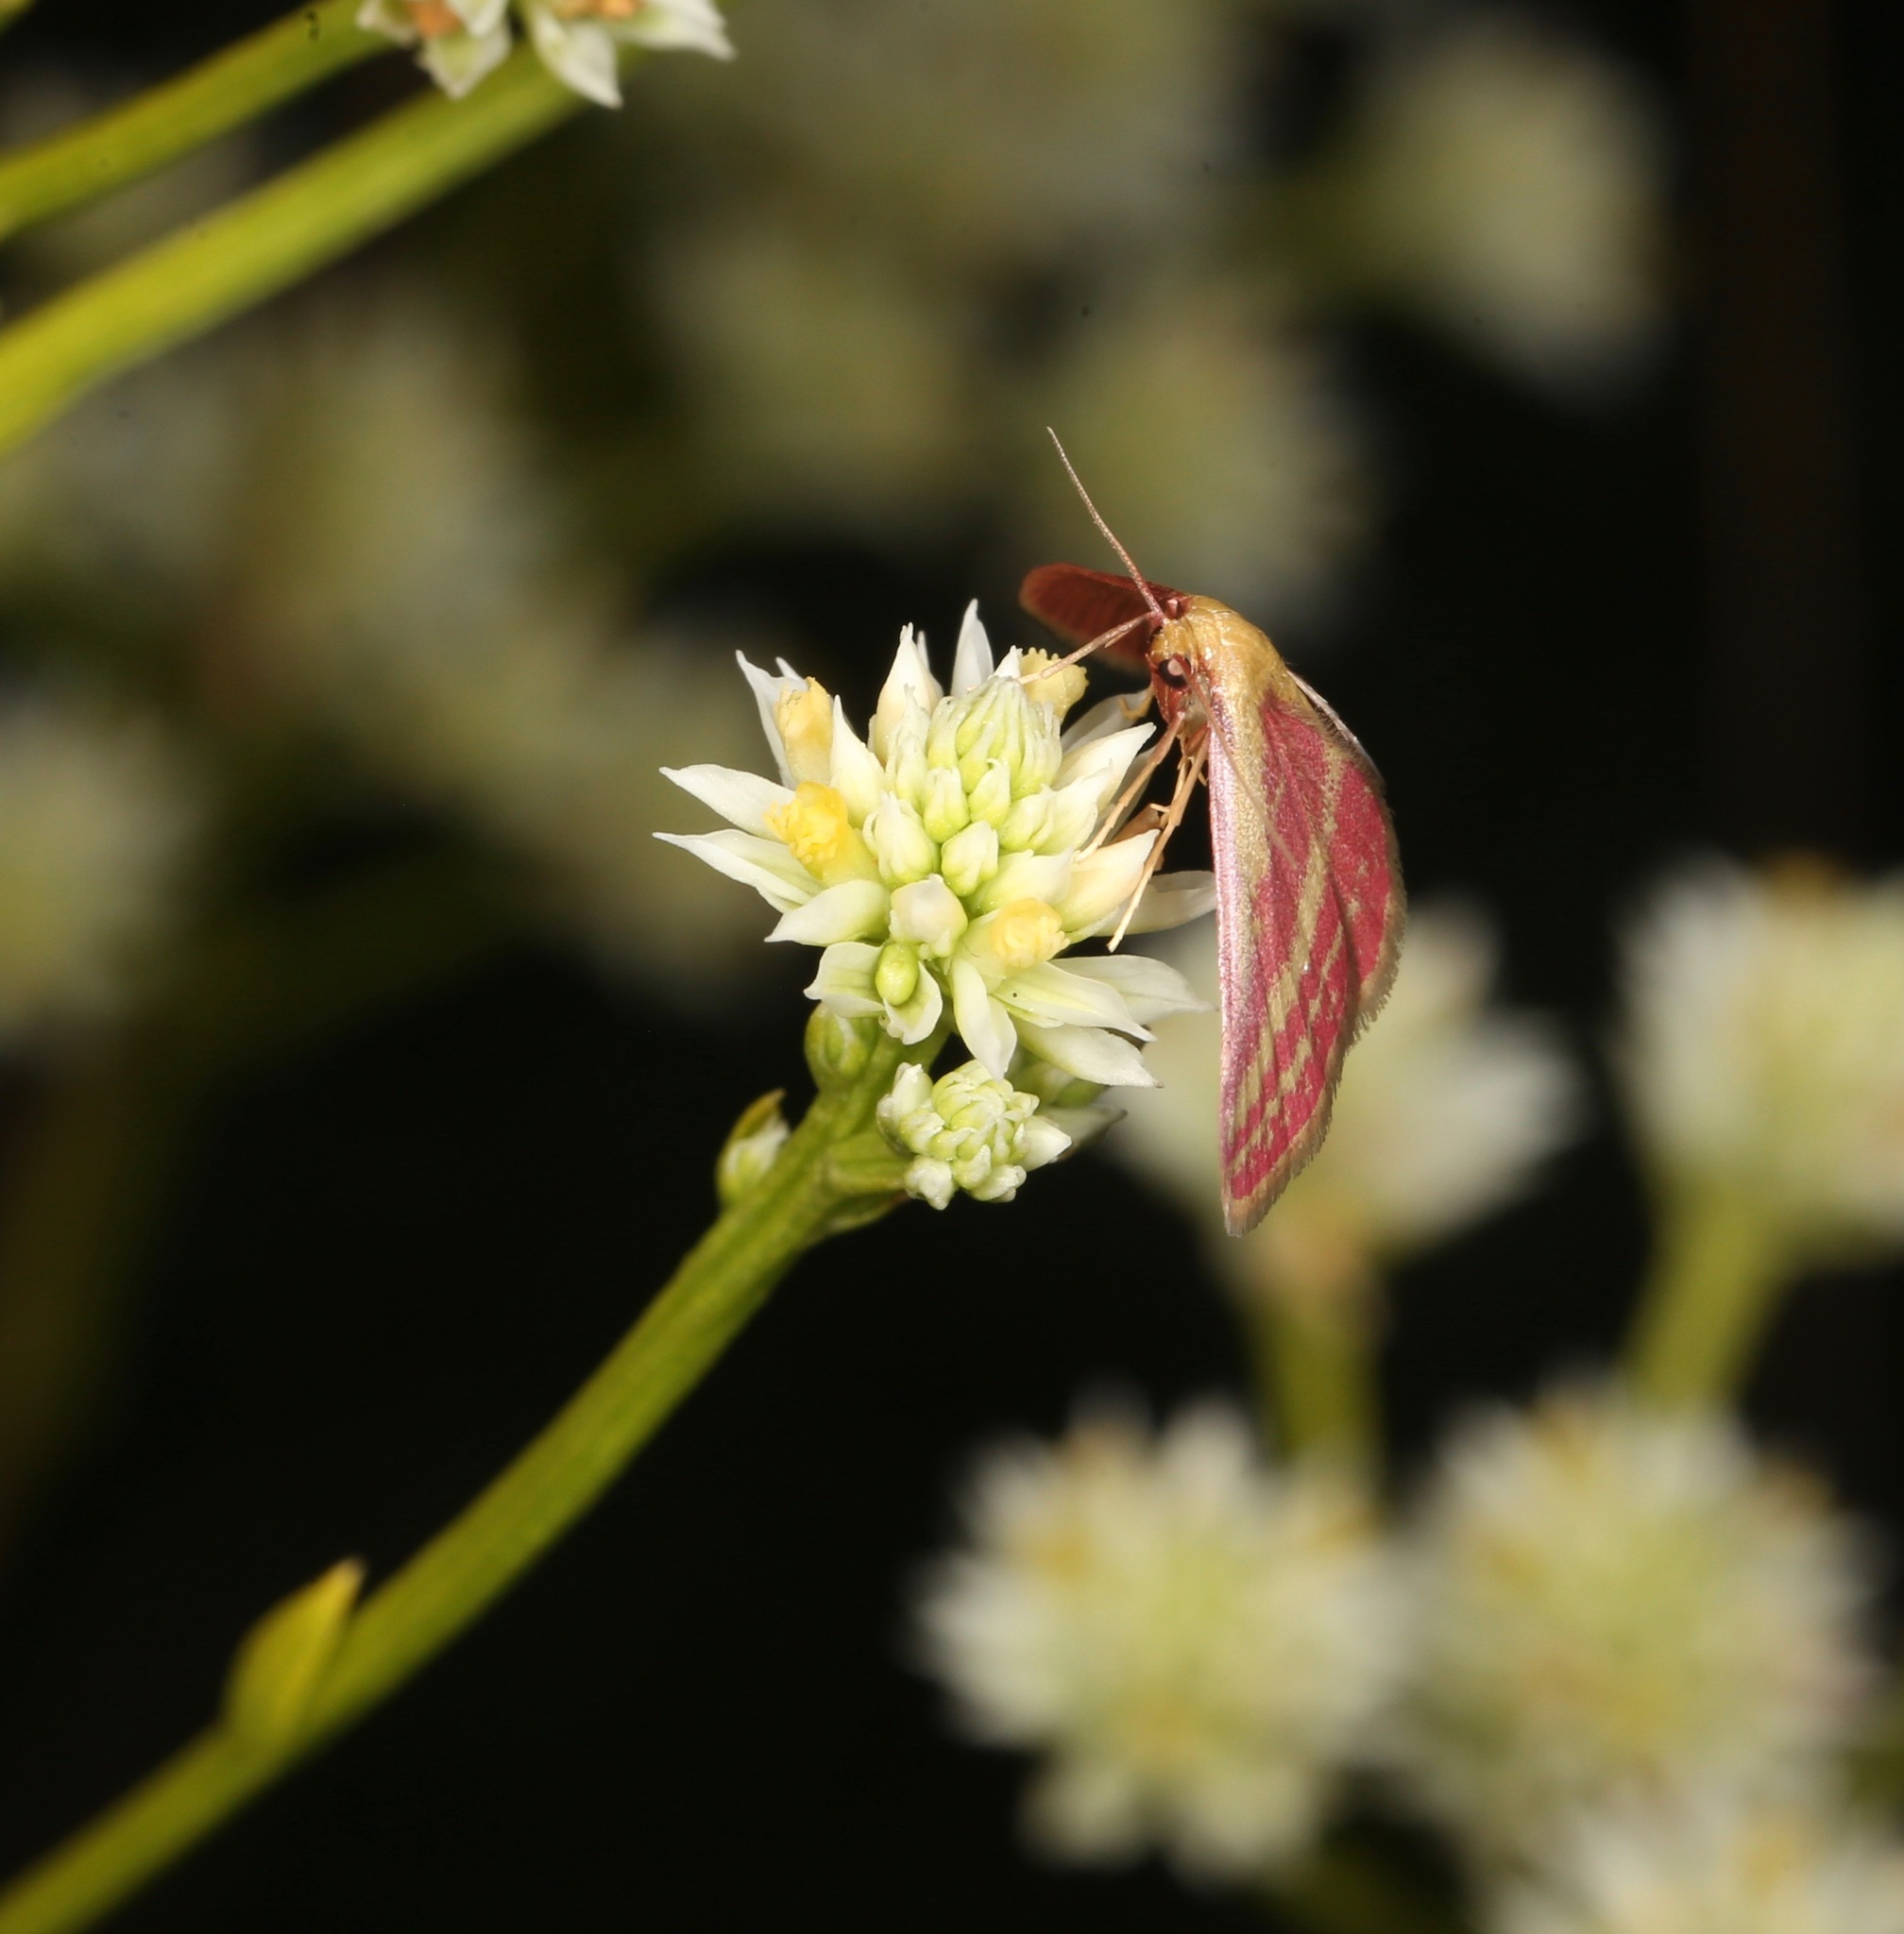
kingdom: Animalia
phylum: Arthropoda
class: Insecta
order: Lepidoptera
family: Geometridae
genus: Leptostales
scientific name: Leptostales laevitaria
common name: Raspberry wave moth
